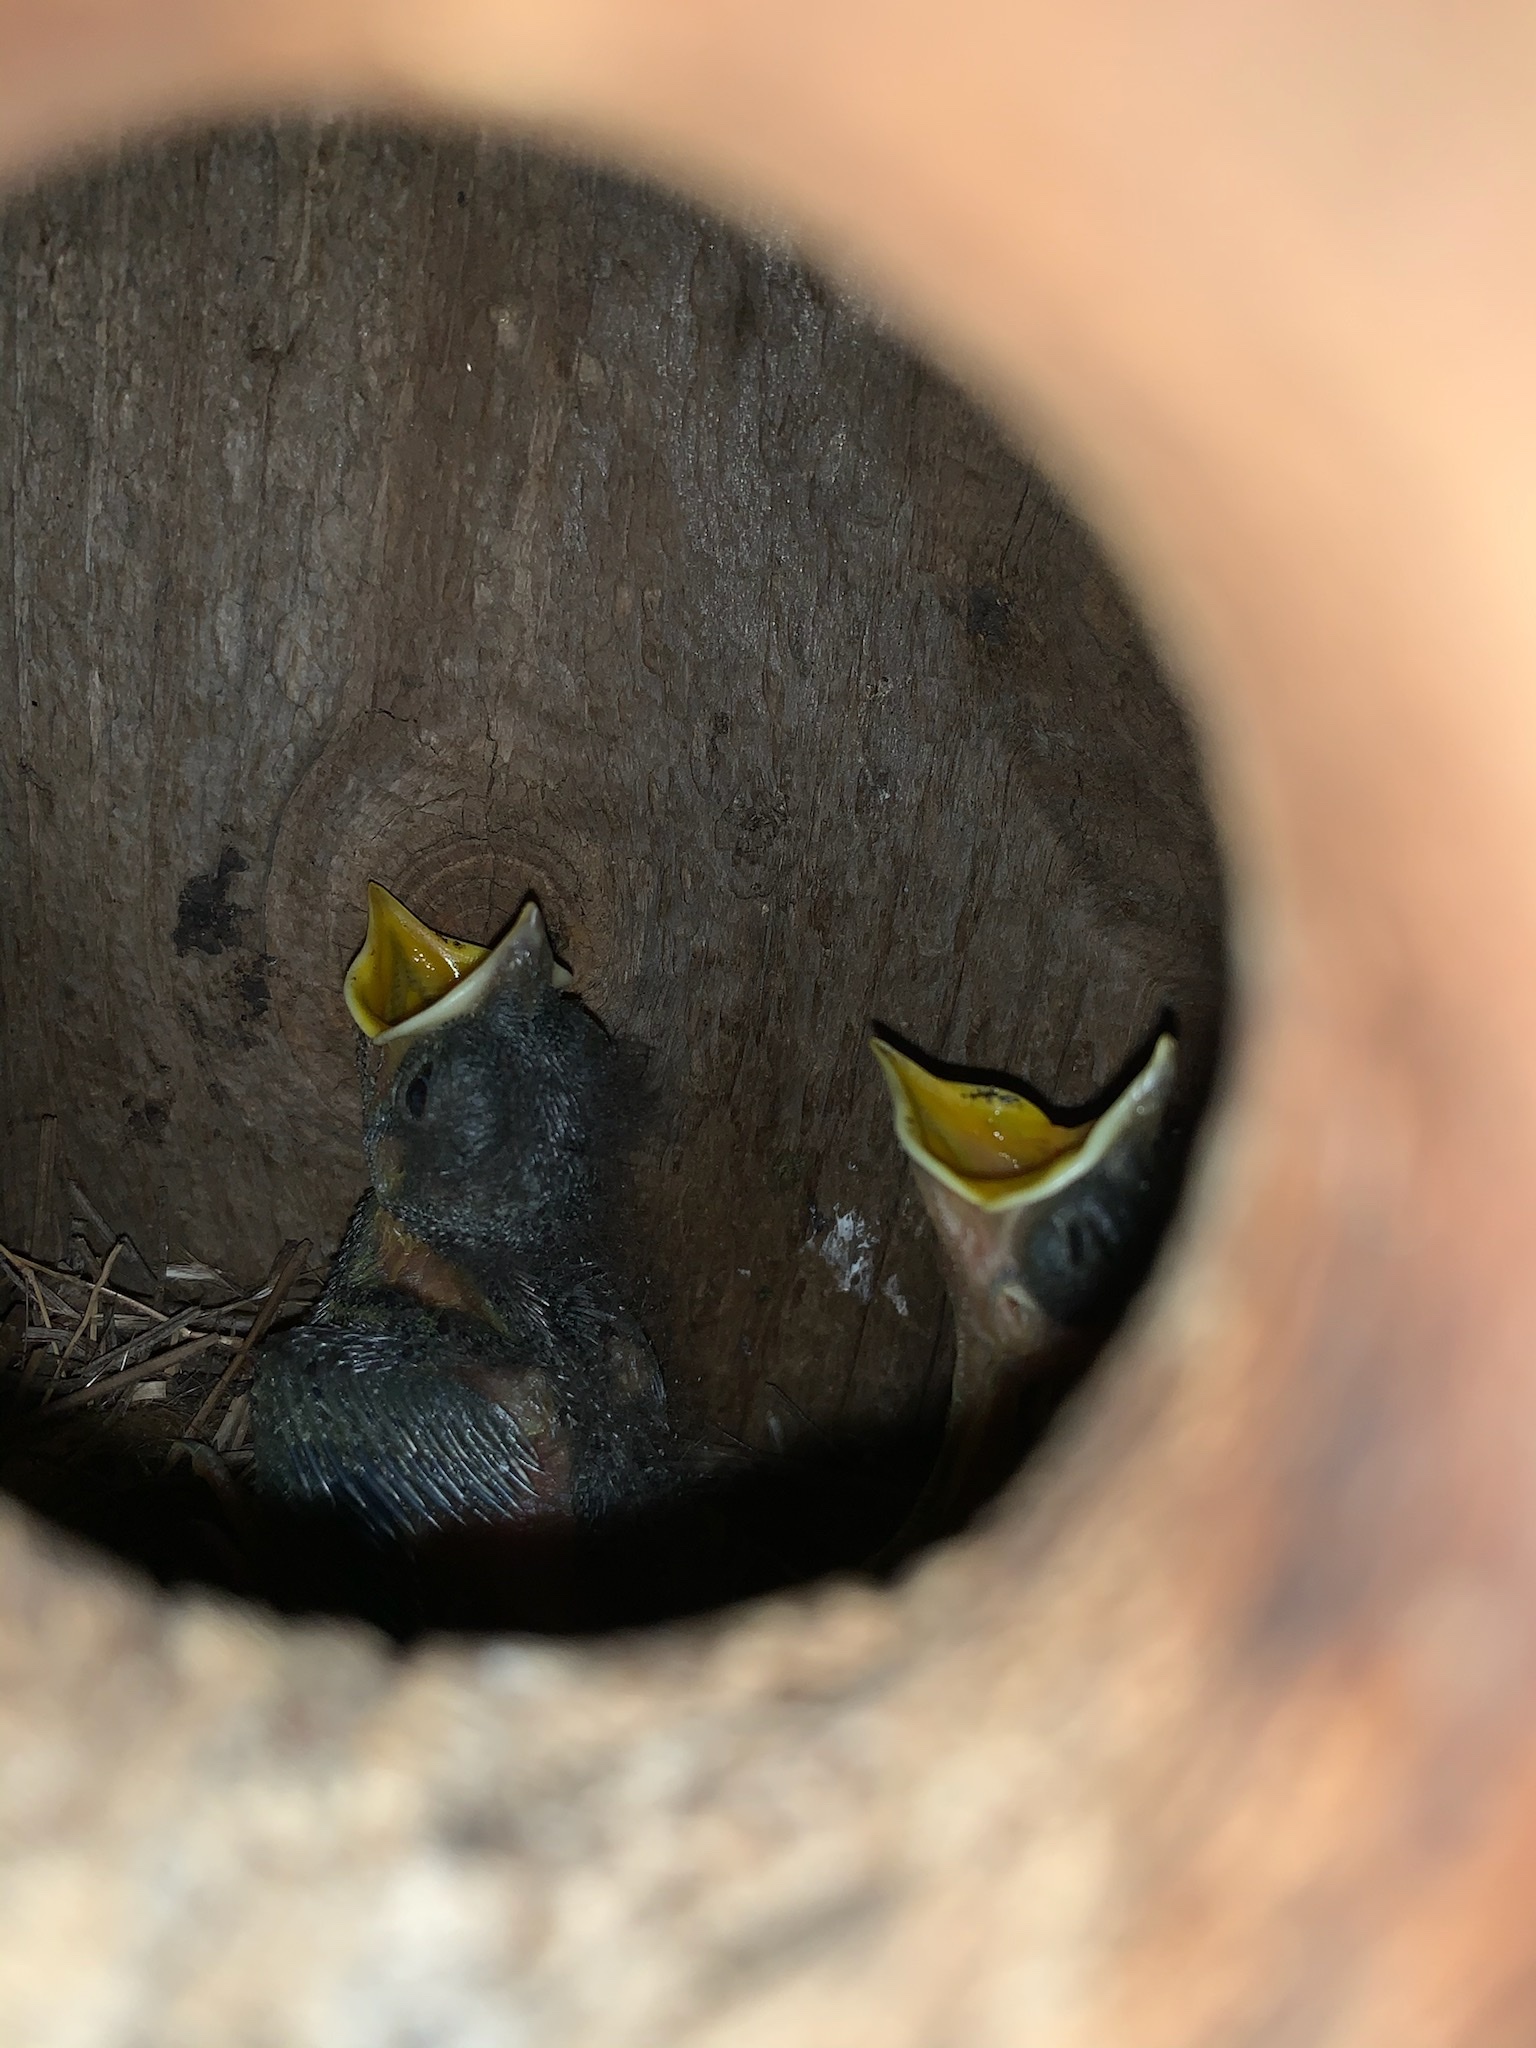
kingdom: Animalia
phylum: Chordata
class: Aves
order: Passeriformes
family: Troglodytidae
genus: Thryothorus
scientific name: Thryothorus ludovicianus
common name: Carolina wren
